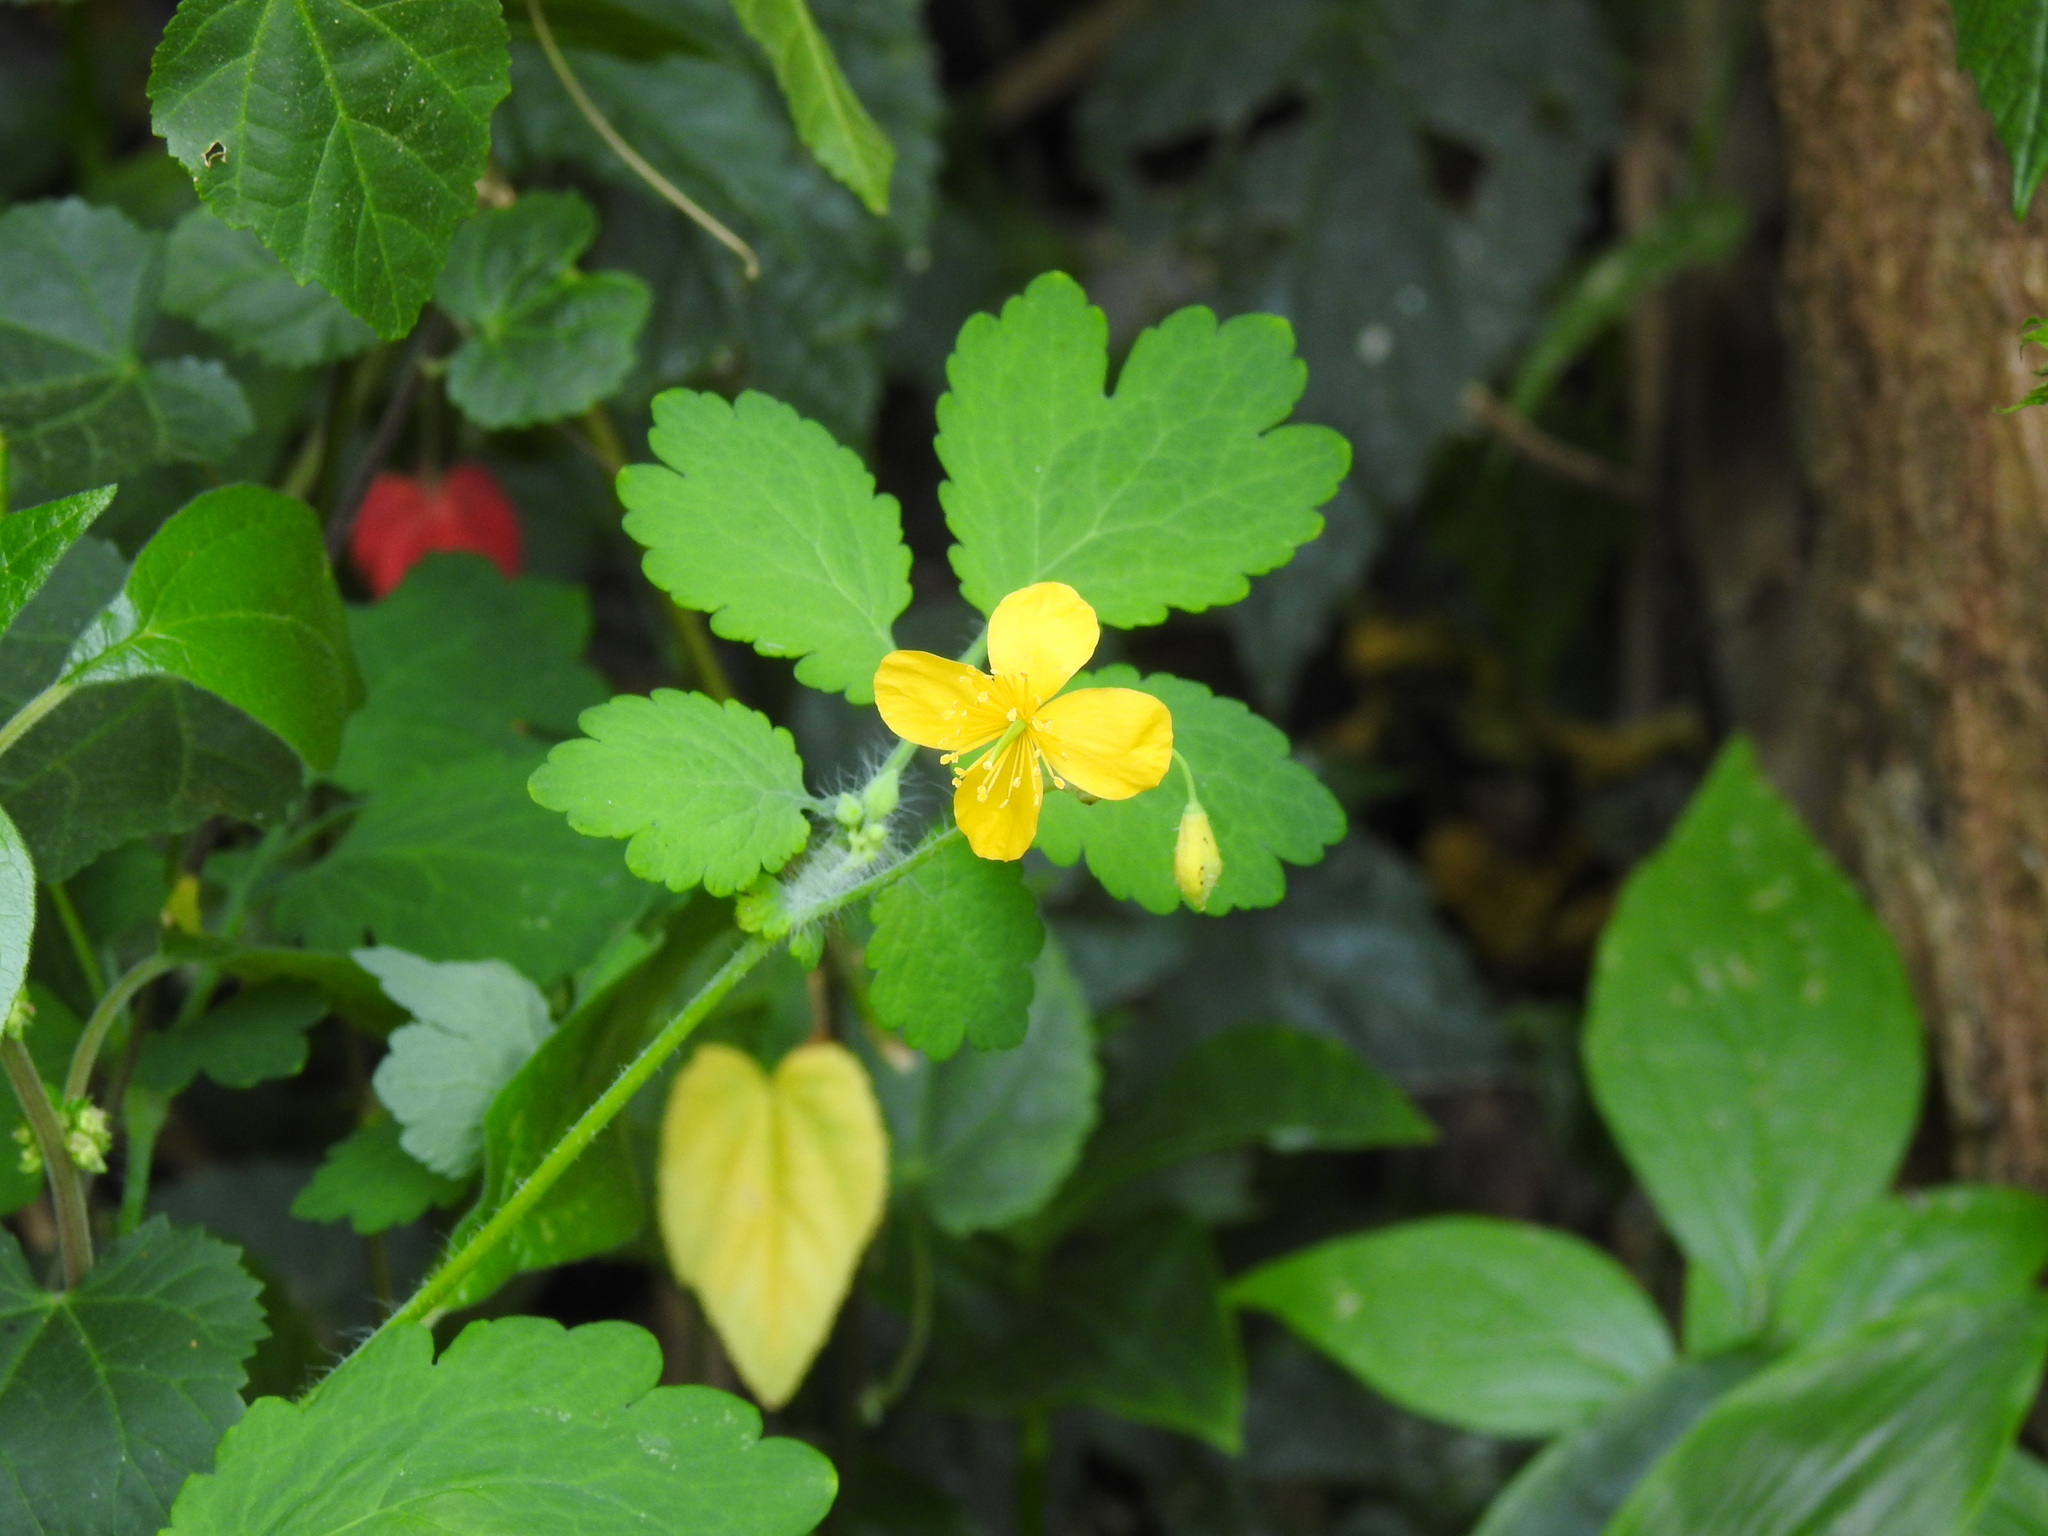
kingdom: Plantae
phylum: Tracheophyta
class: Magnoliopsida
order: Ranunculales
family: Papaveraceae
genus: Chelidonium
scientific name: Chelidonium majus
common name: Greater celandine
